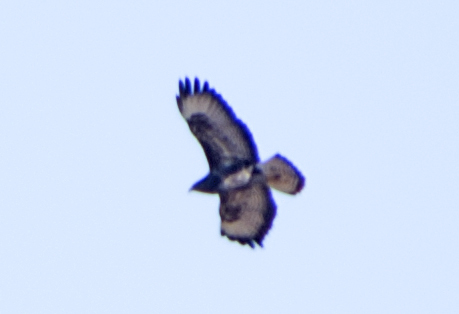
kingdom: Animalia
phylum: Chordata
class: Aves
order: Accipitriformes
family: Accipitridae
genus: Buteo
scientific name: Buteo buteo
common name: Common buzzard
